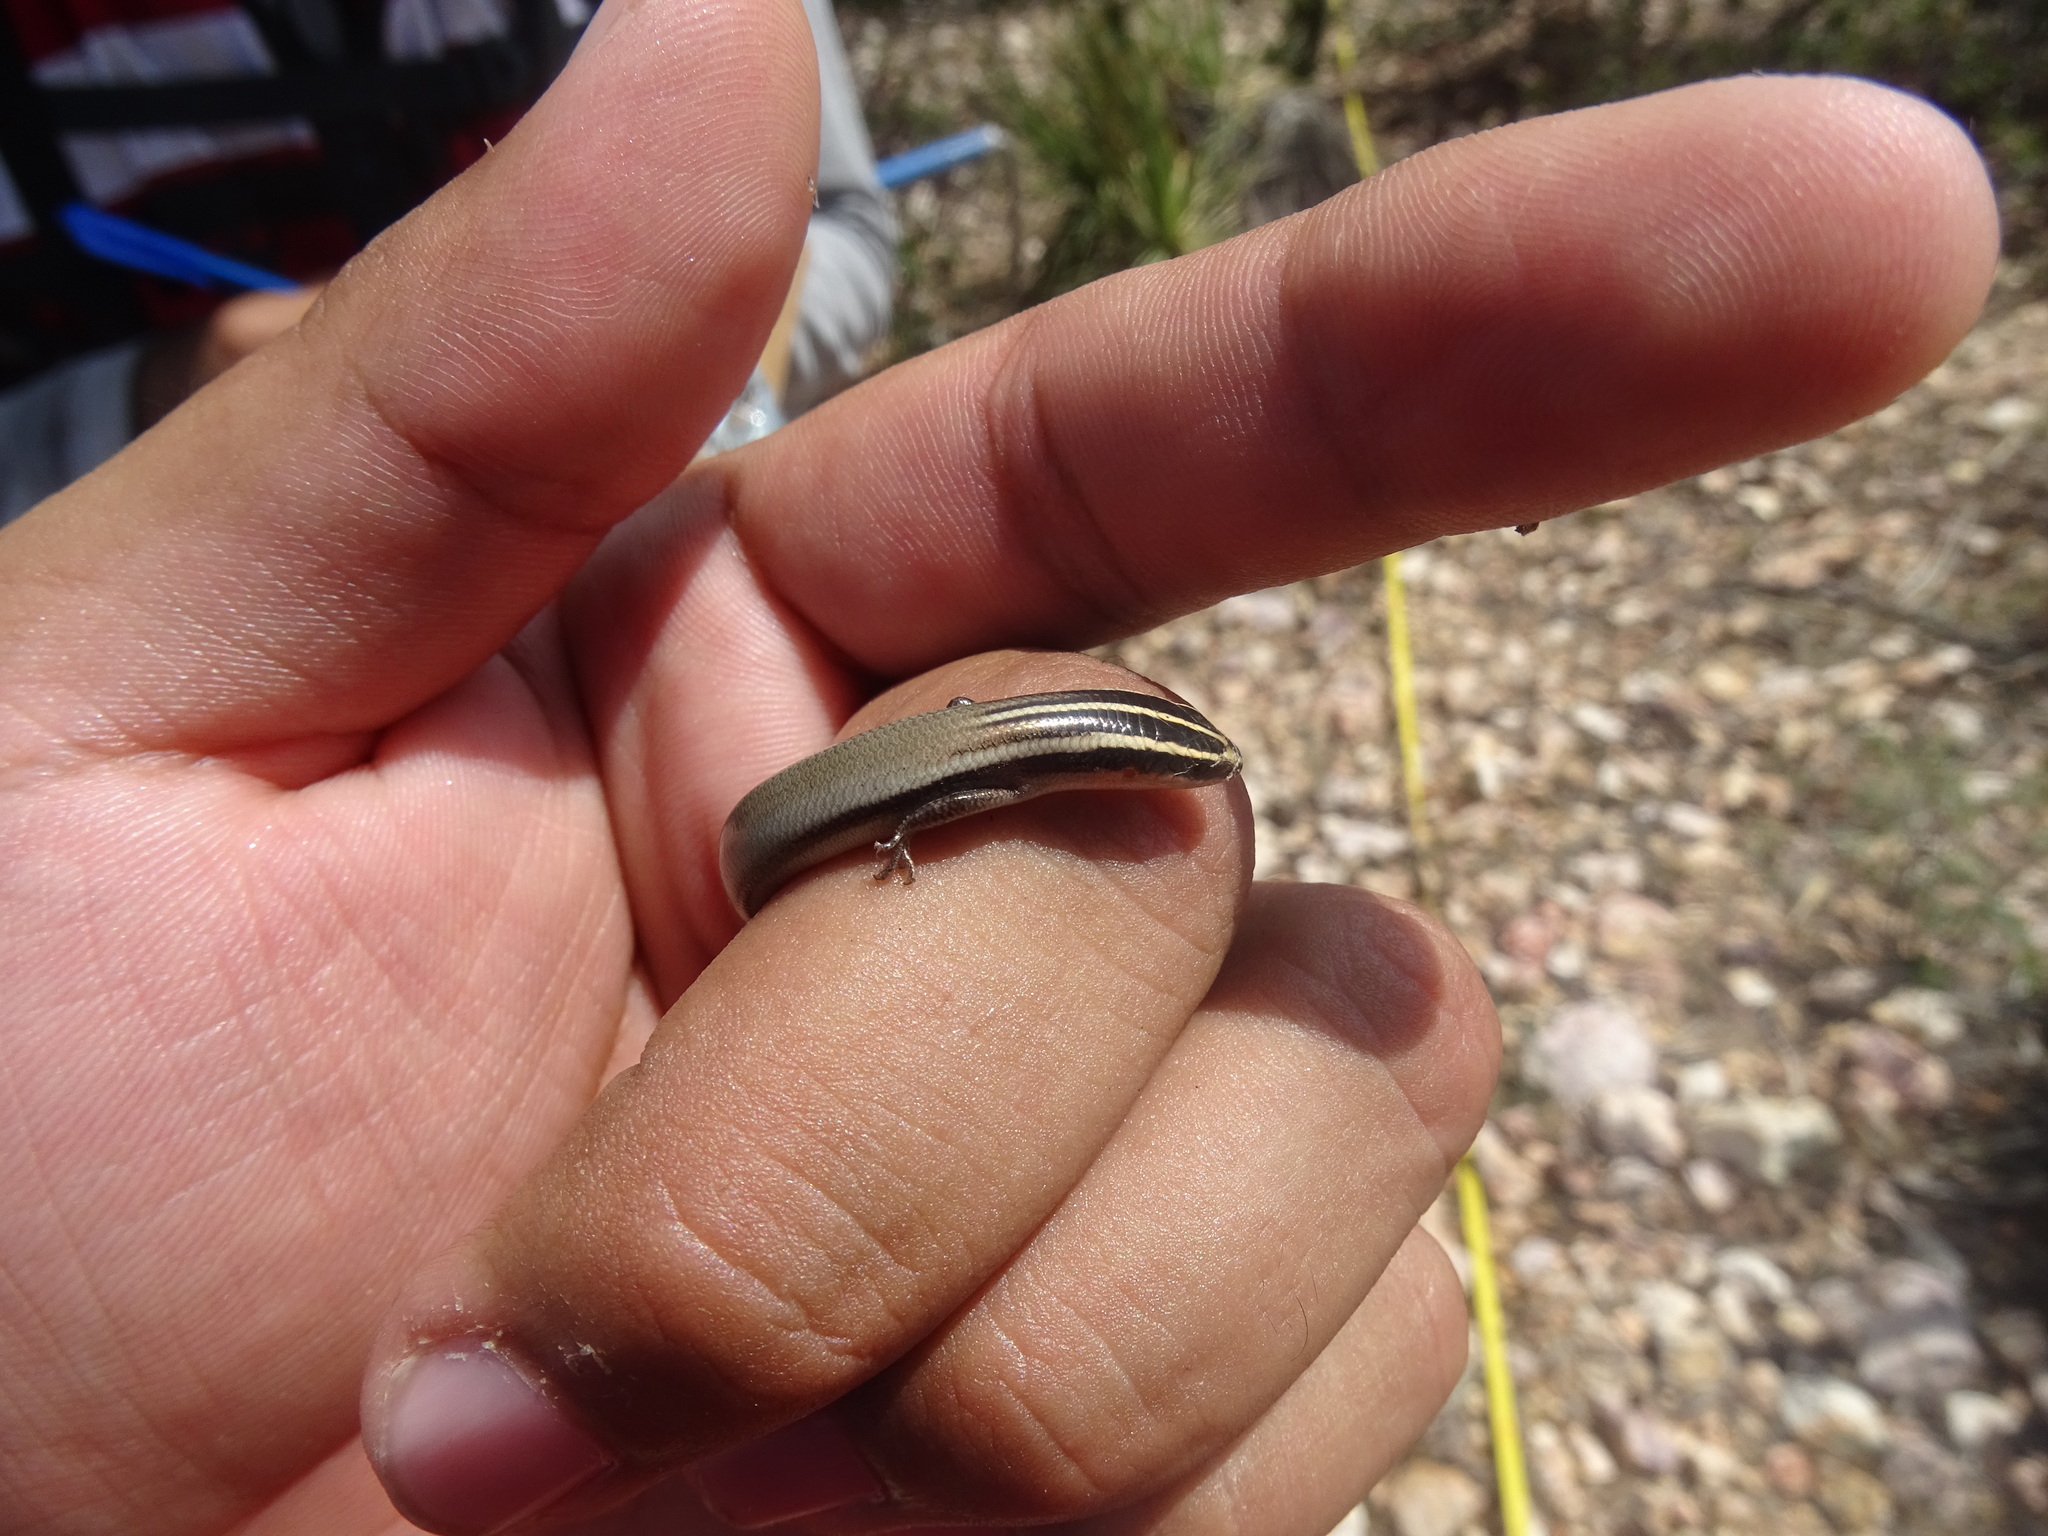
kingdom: Animalia
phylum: Chordata
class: Squamata
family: Scincidae
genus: Plestiodon
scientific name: Plestiodon lynxe
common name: Oak forest skink
